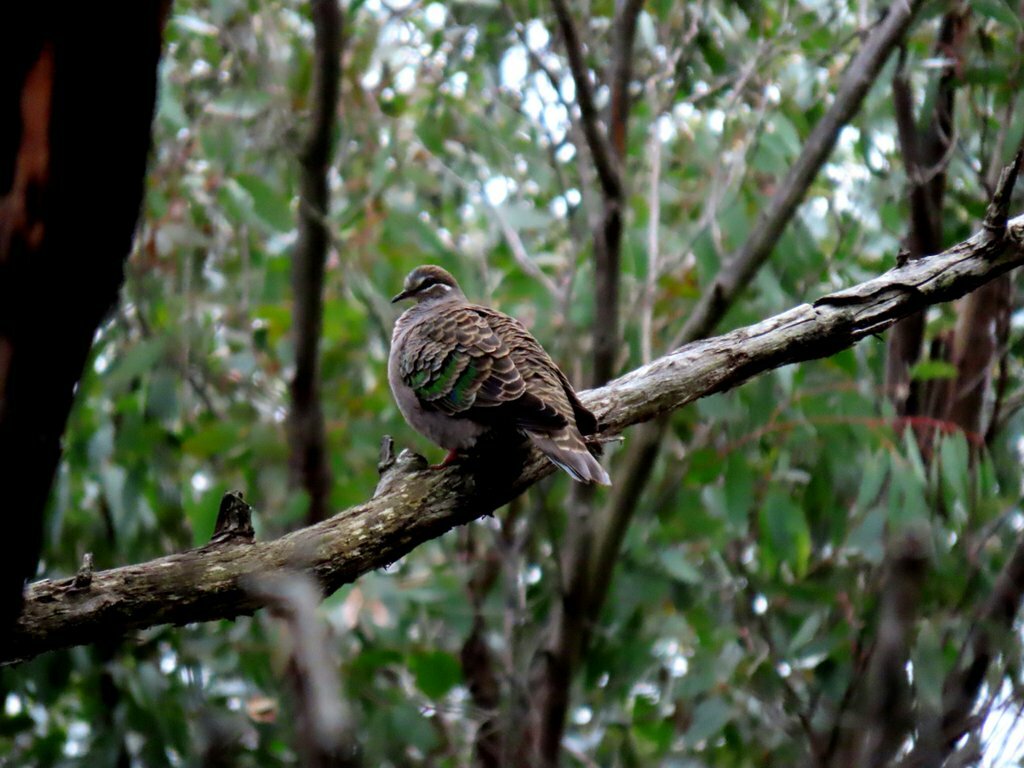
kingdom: Animalia
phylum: Chordata
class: Aves
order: Columbiformes
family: Columbidae
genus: Phaps
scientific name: Phaps chalcoptera
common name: Common bronzewing
